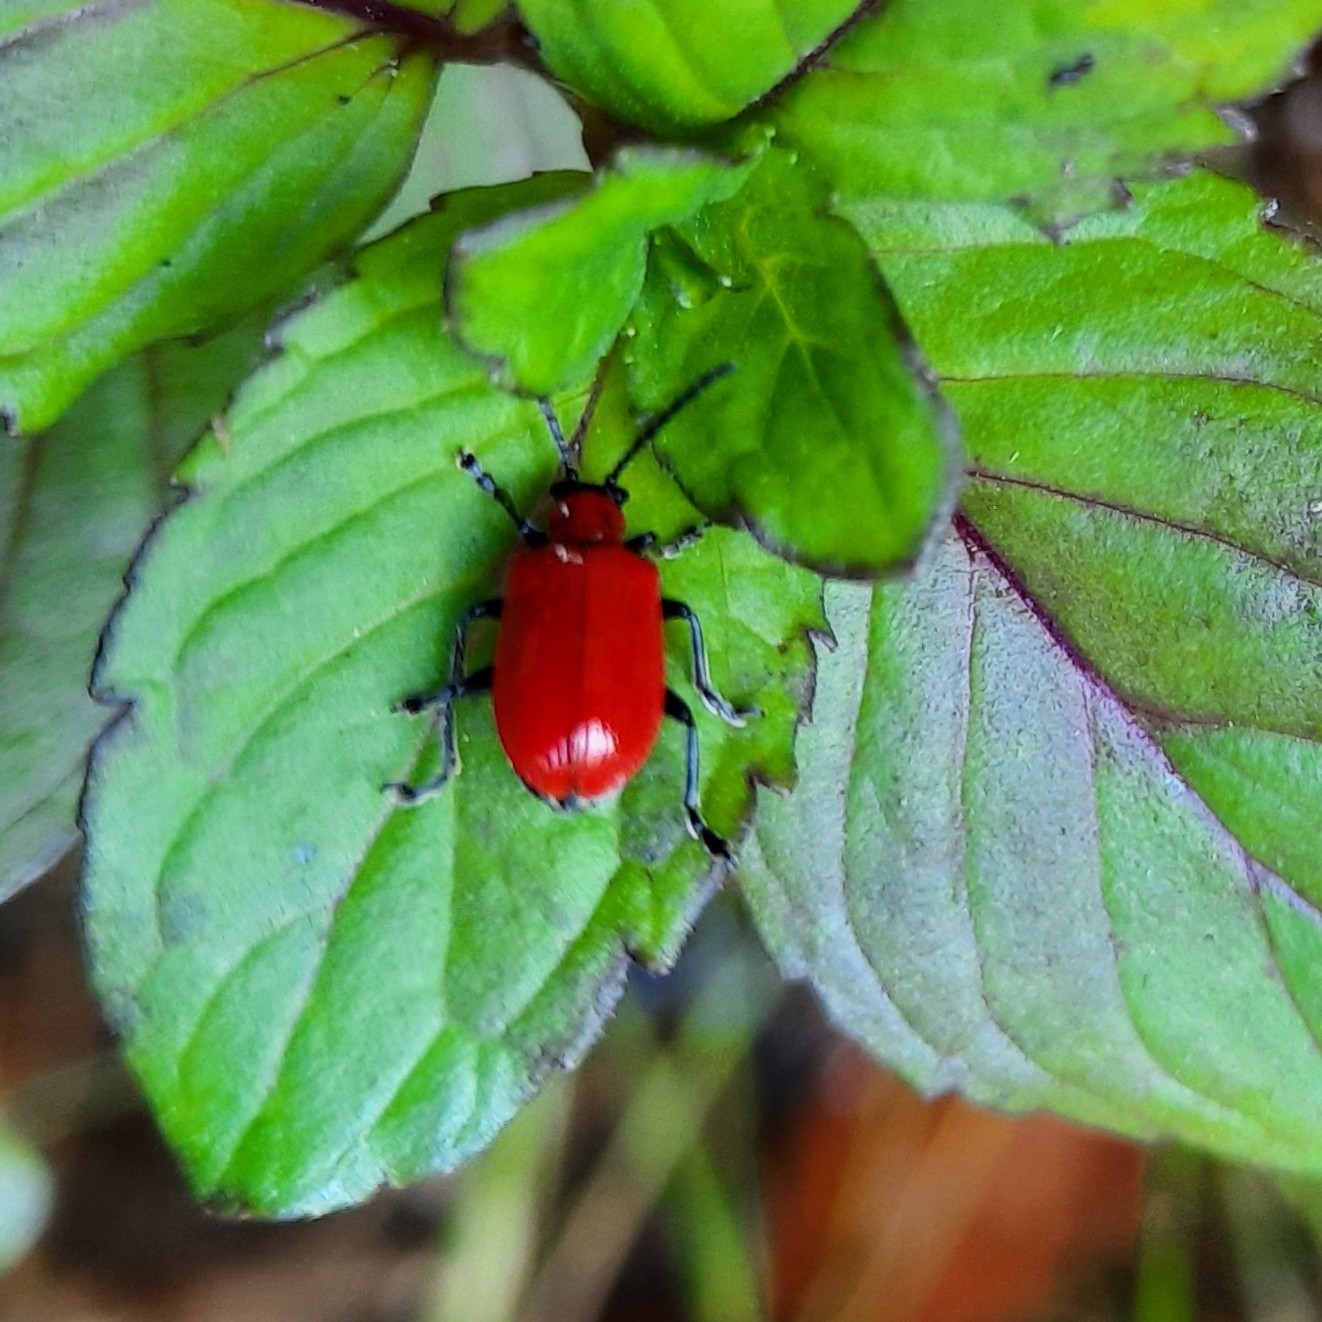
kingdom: Animalia
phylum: Arthropoda
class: Insecta
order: Coleoptera
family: Chrysomelidae
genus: Lilioceris
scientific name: Lilioceris lilii
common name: Lily beetle
